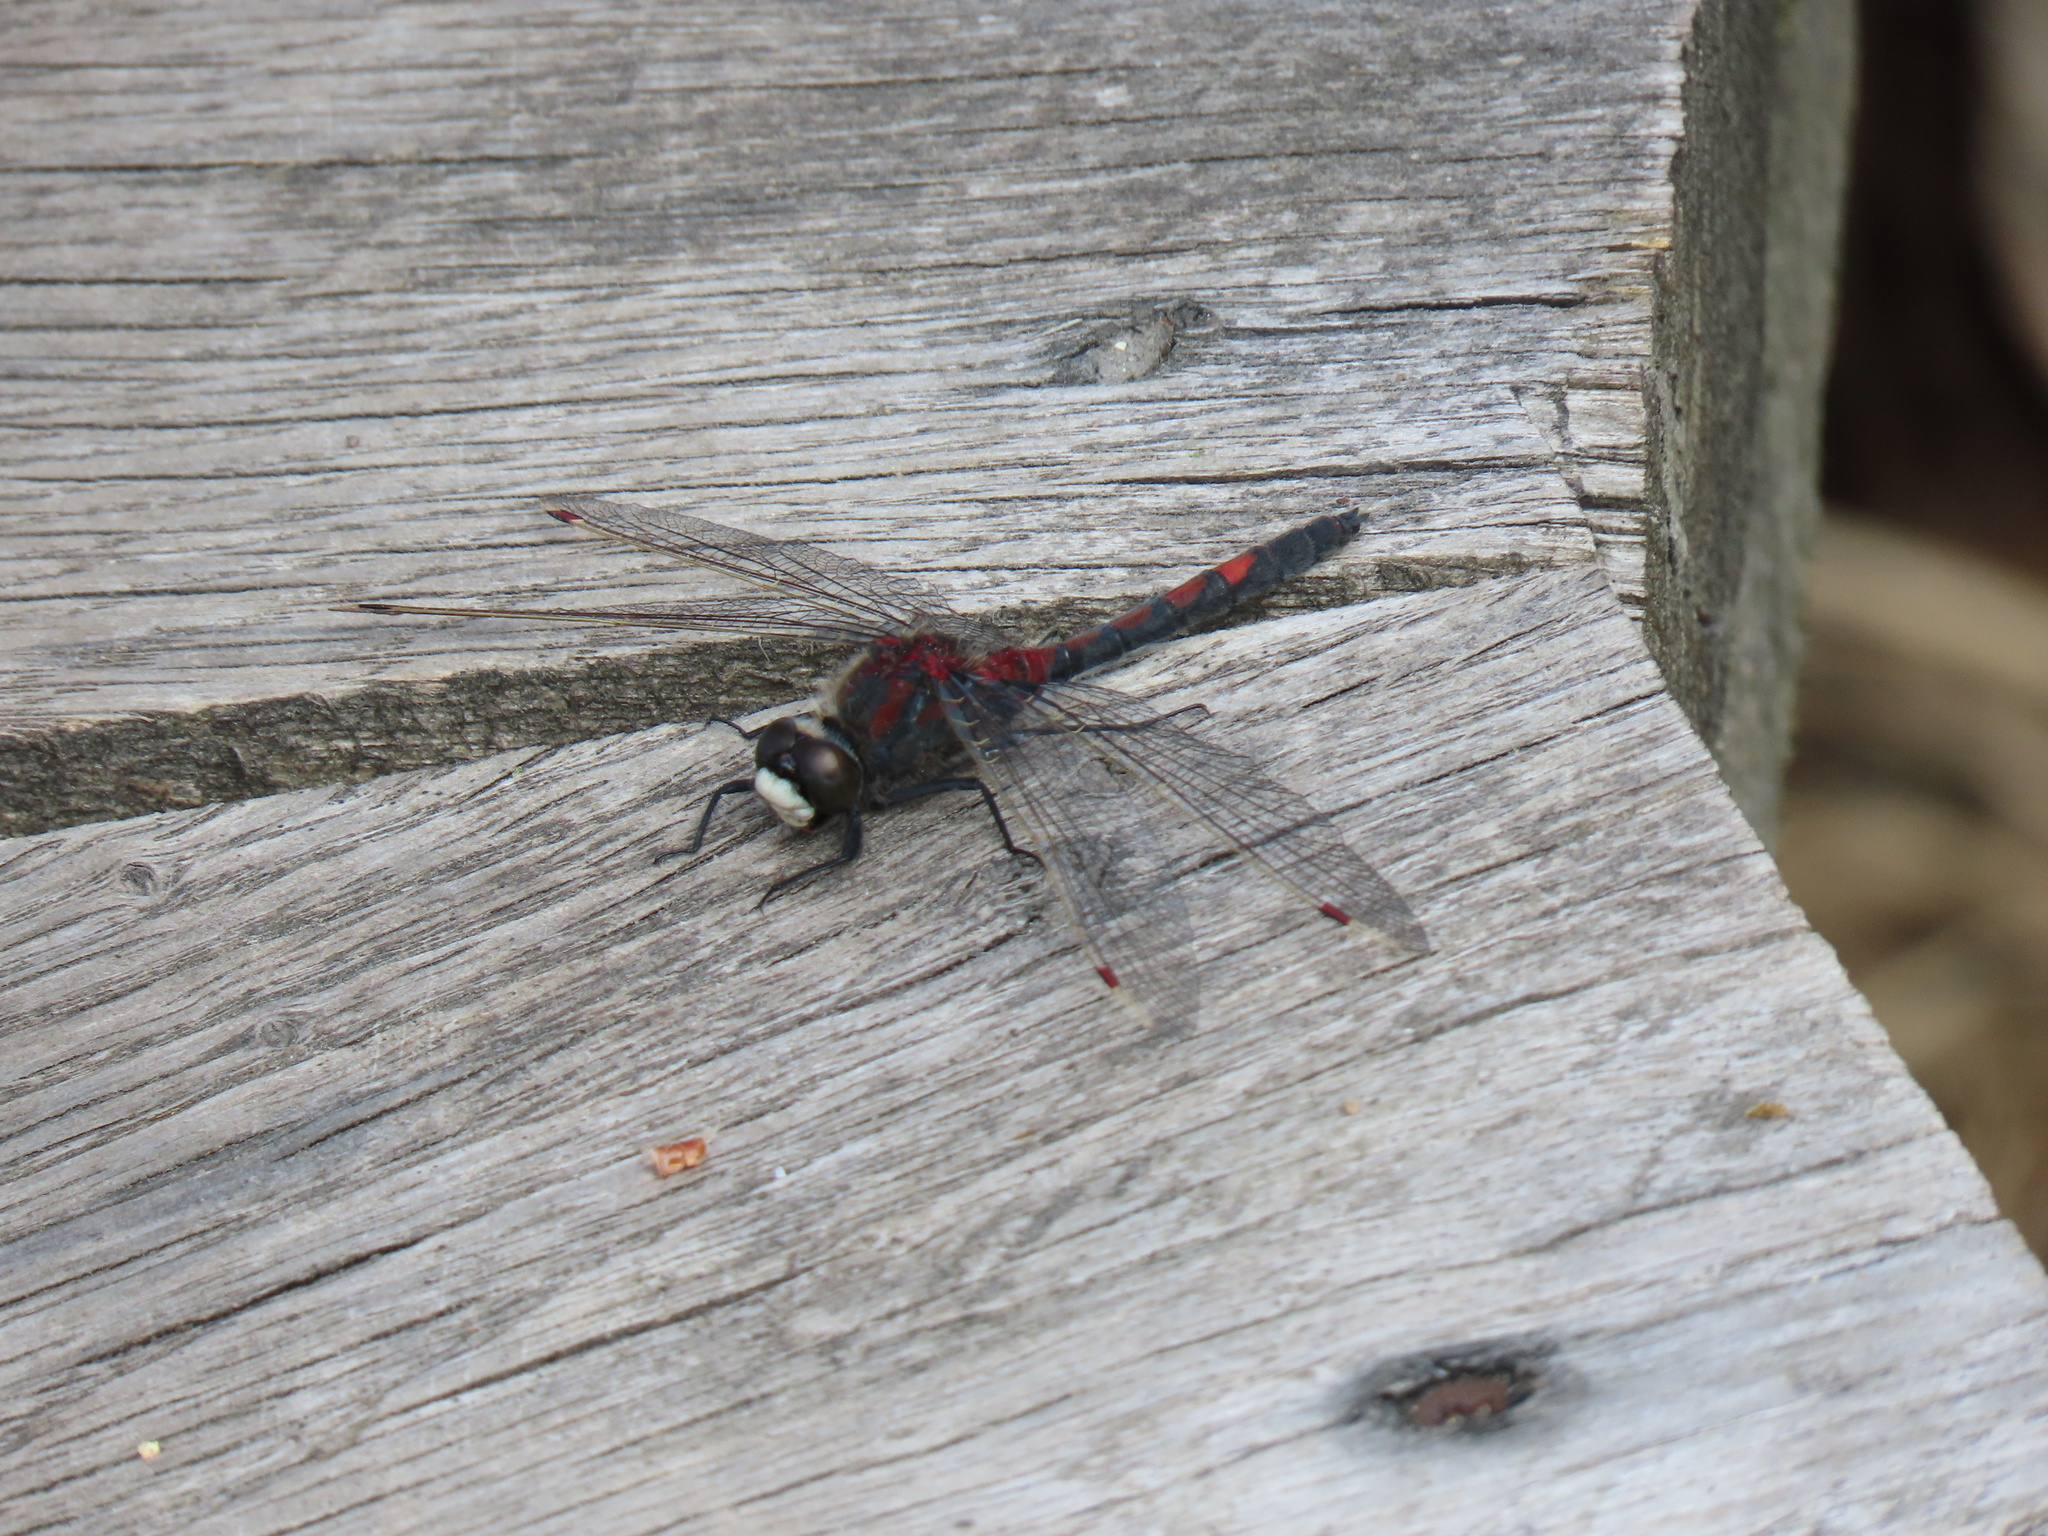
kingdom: Animalia
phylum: Arthropoda
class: Insecta
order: Odonata
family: Libellulidae
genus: Leucorrhinia
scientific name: Leucorrhinia rubicunda
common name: Ruby whiteface
